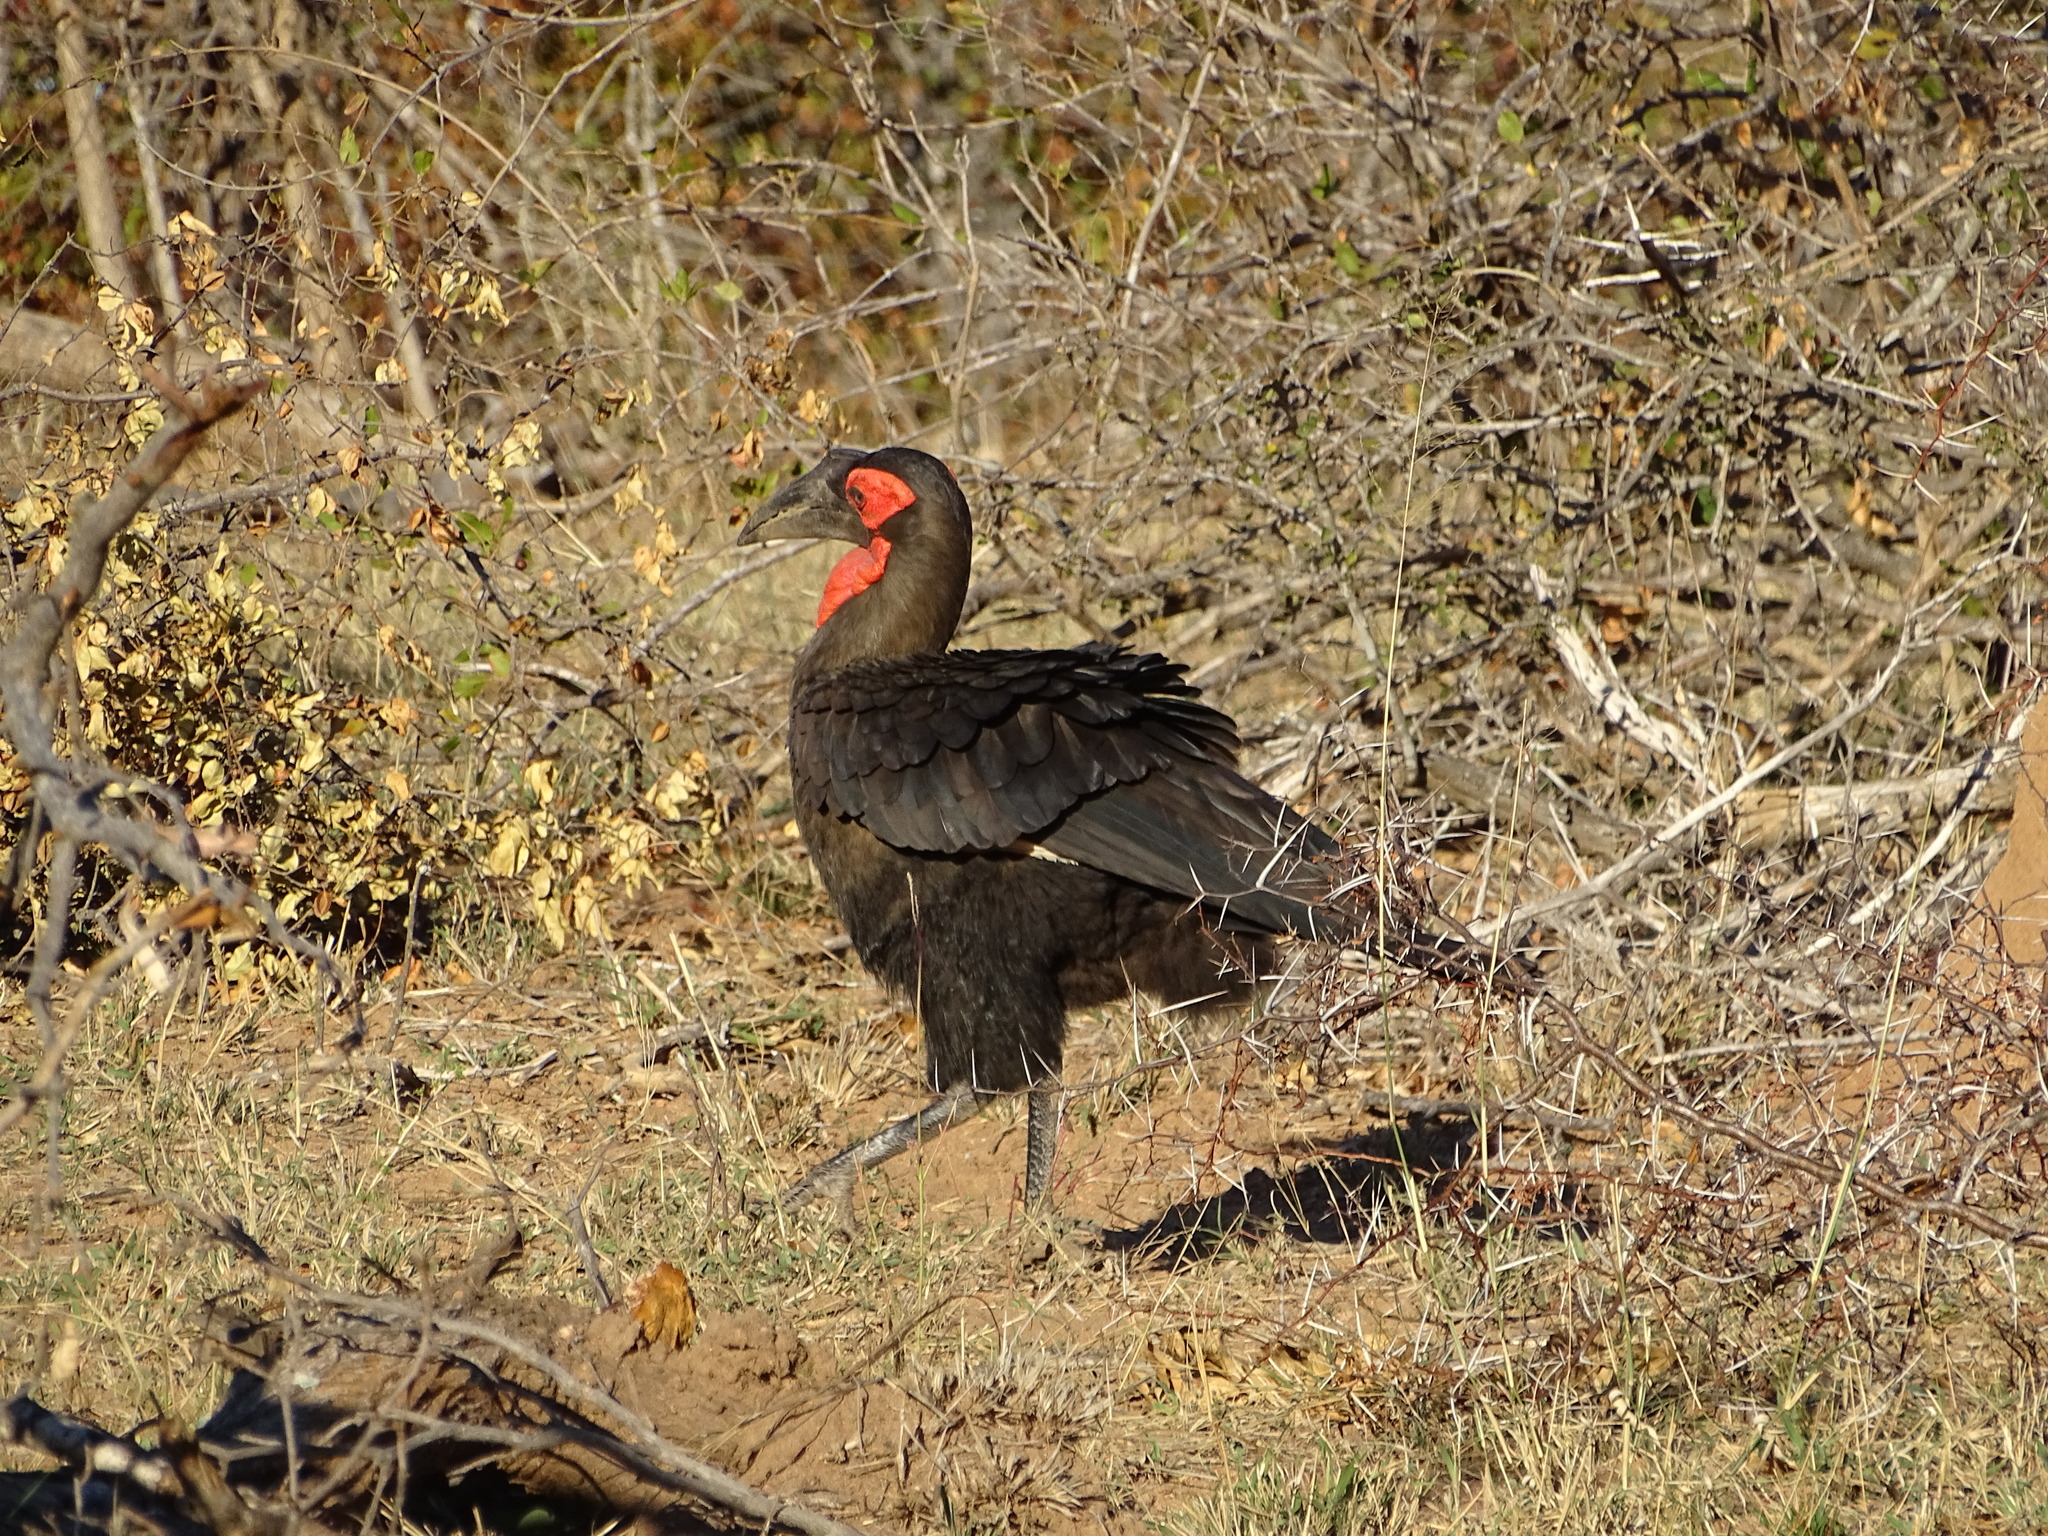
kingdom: Animalia
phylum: Chordata
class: Aves
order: Bucerotiformes
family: Bucorvidae
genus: Bucorvus
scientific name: Bucorvus leadbeateri
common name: Southern ground-hornbill
